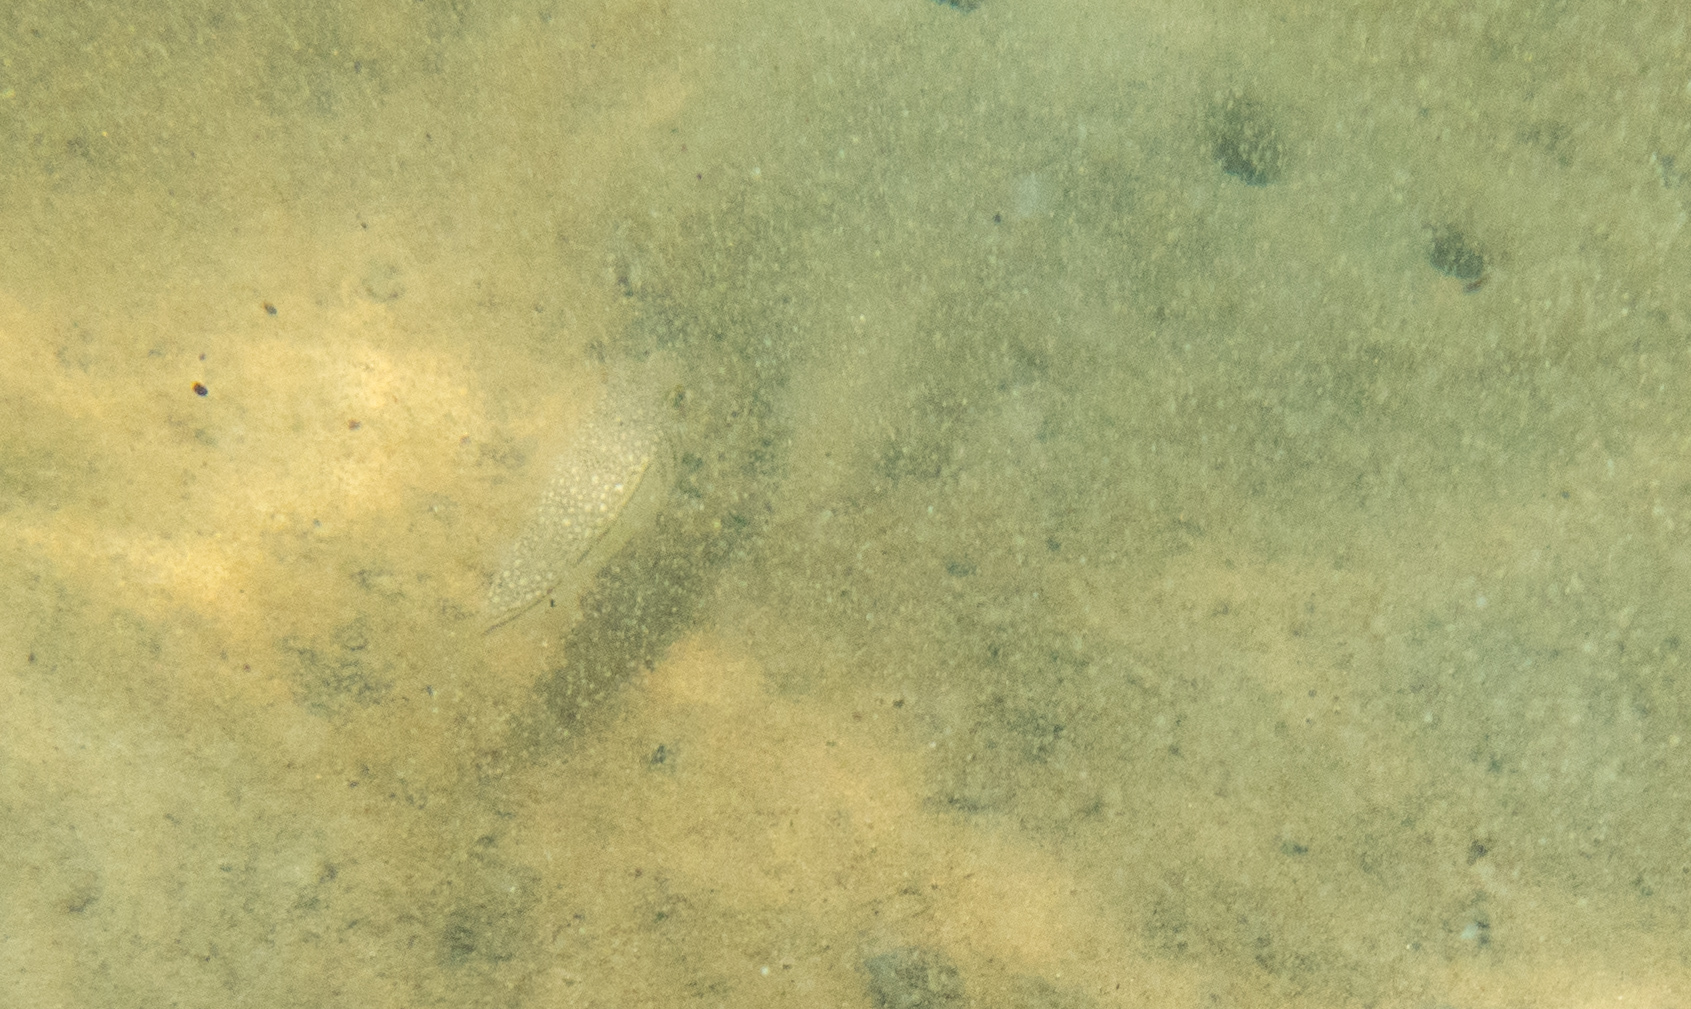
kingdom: Animalia
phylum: Chordata
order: Tetraodontiformes
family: Tetraodontidae
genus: Torquigener
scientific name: Torquigener pleurogramma
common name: Banded toadfish
